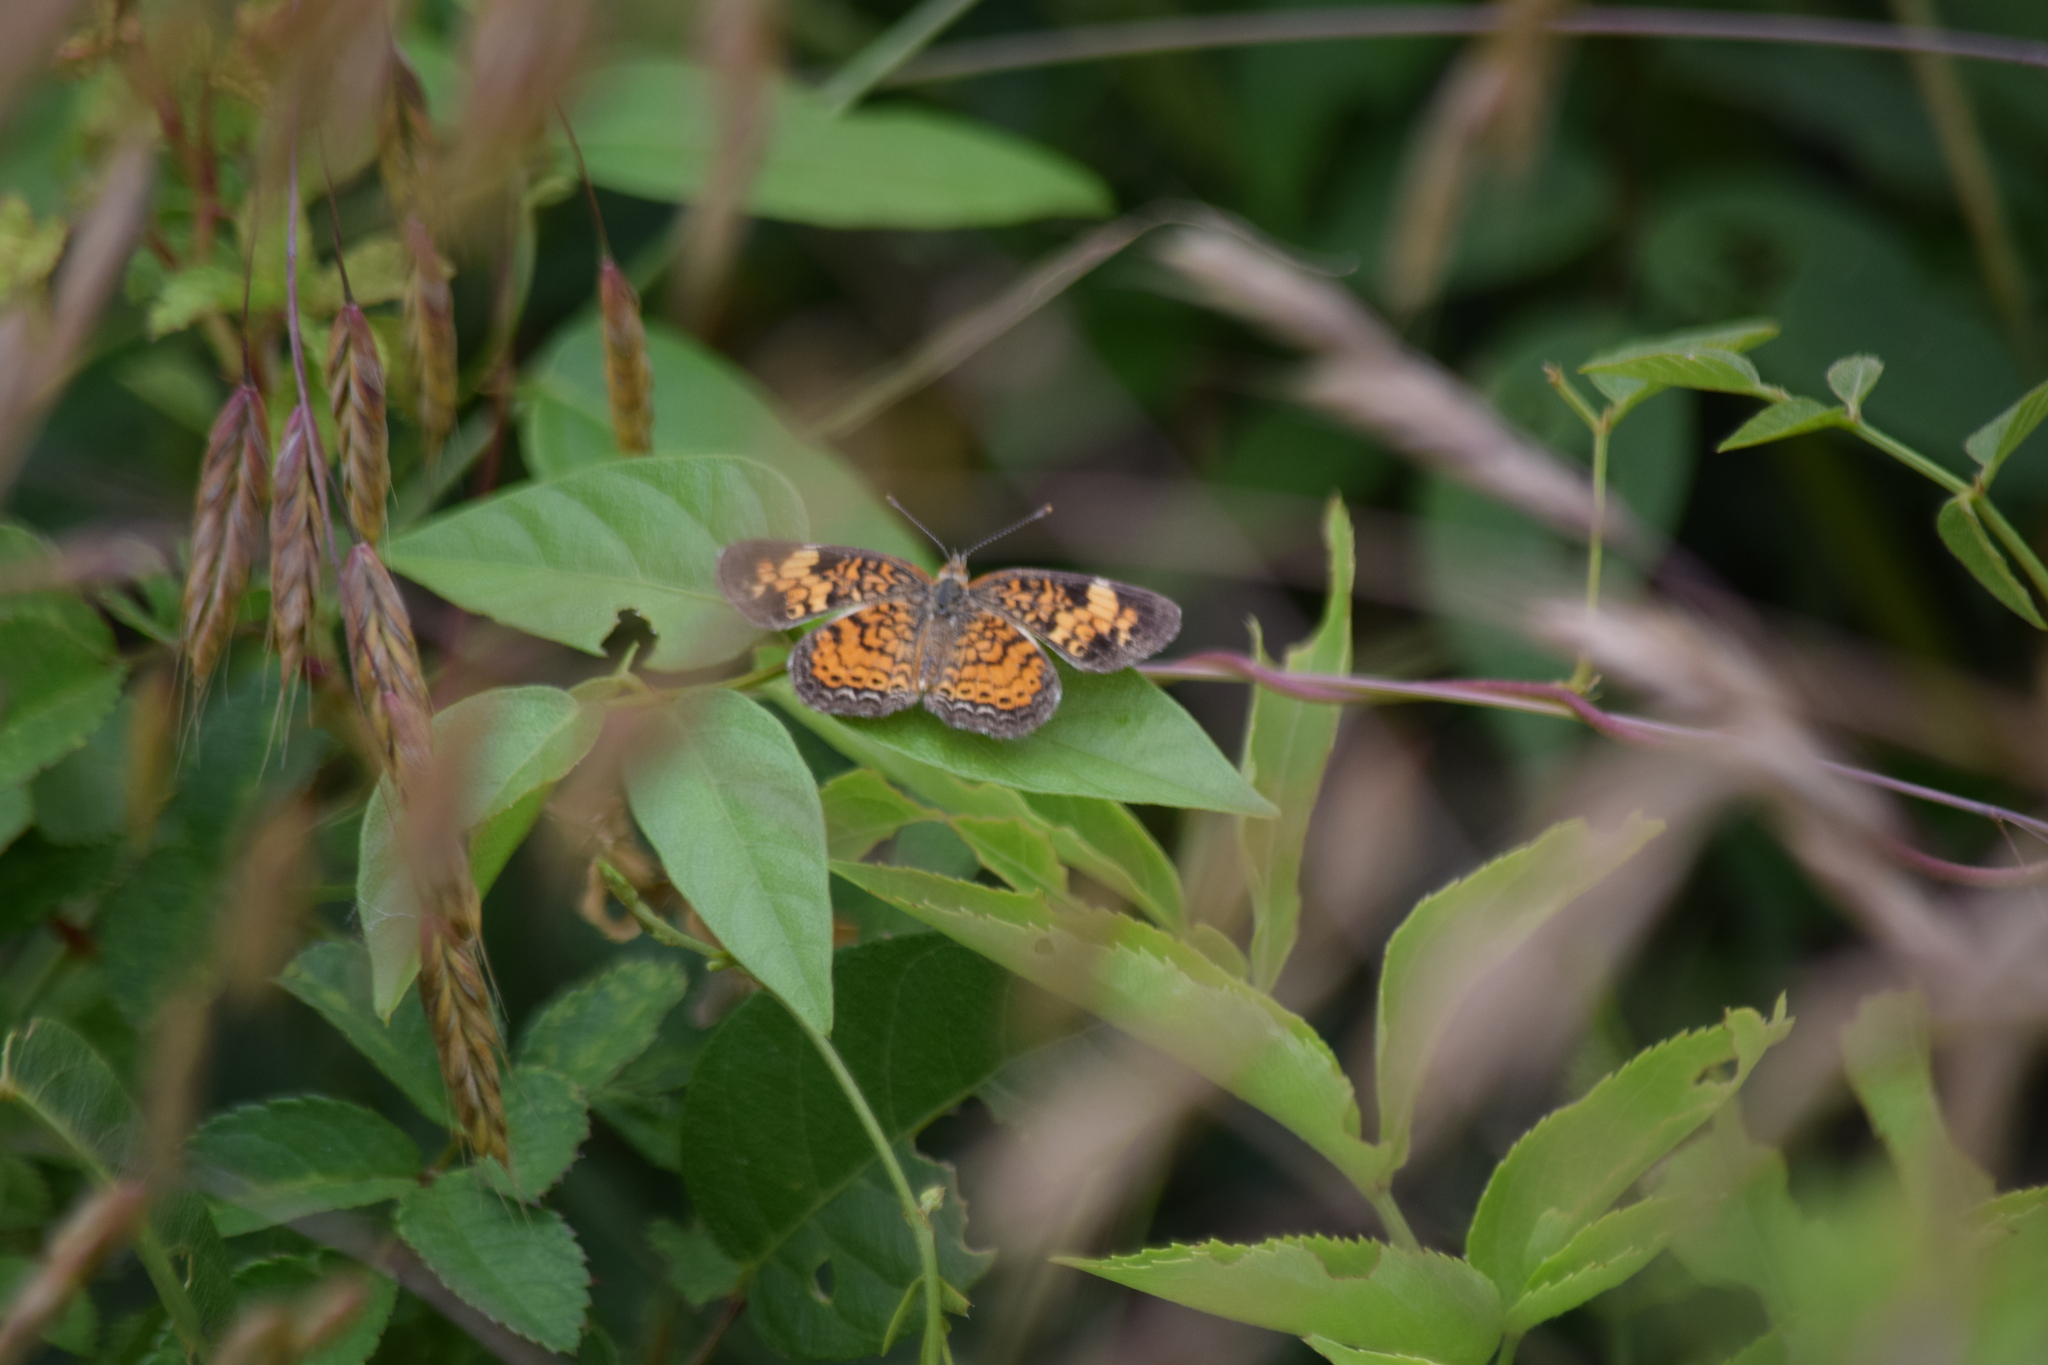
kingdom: Animalia
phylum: Arthropoda
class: Insecta
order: Lepidoptera
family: Nymphalidae
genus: Phyciodes
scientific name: Phyciodes tharos
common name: Pearl crescent
